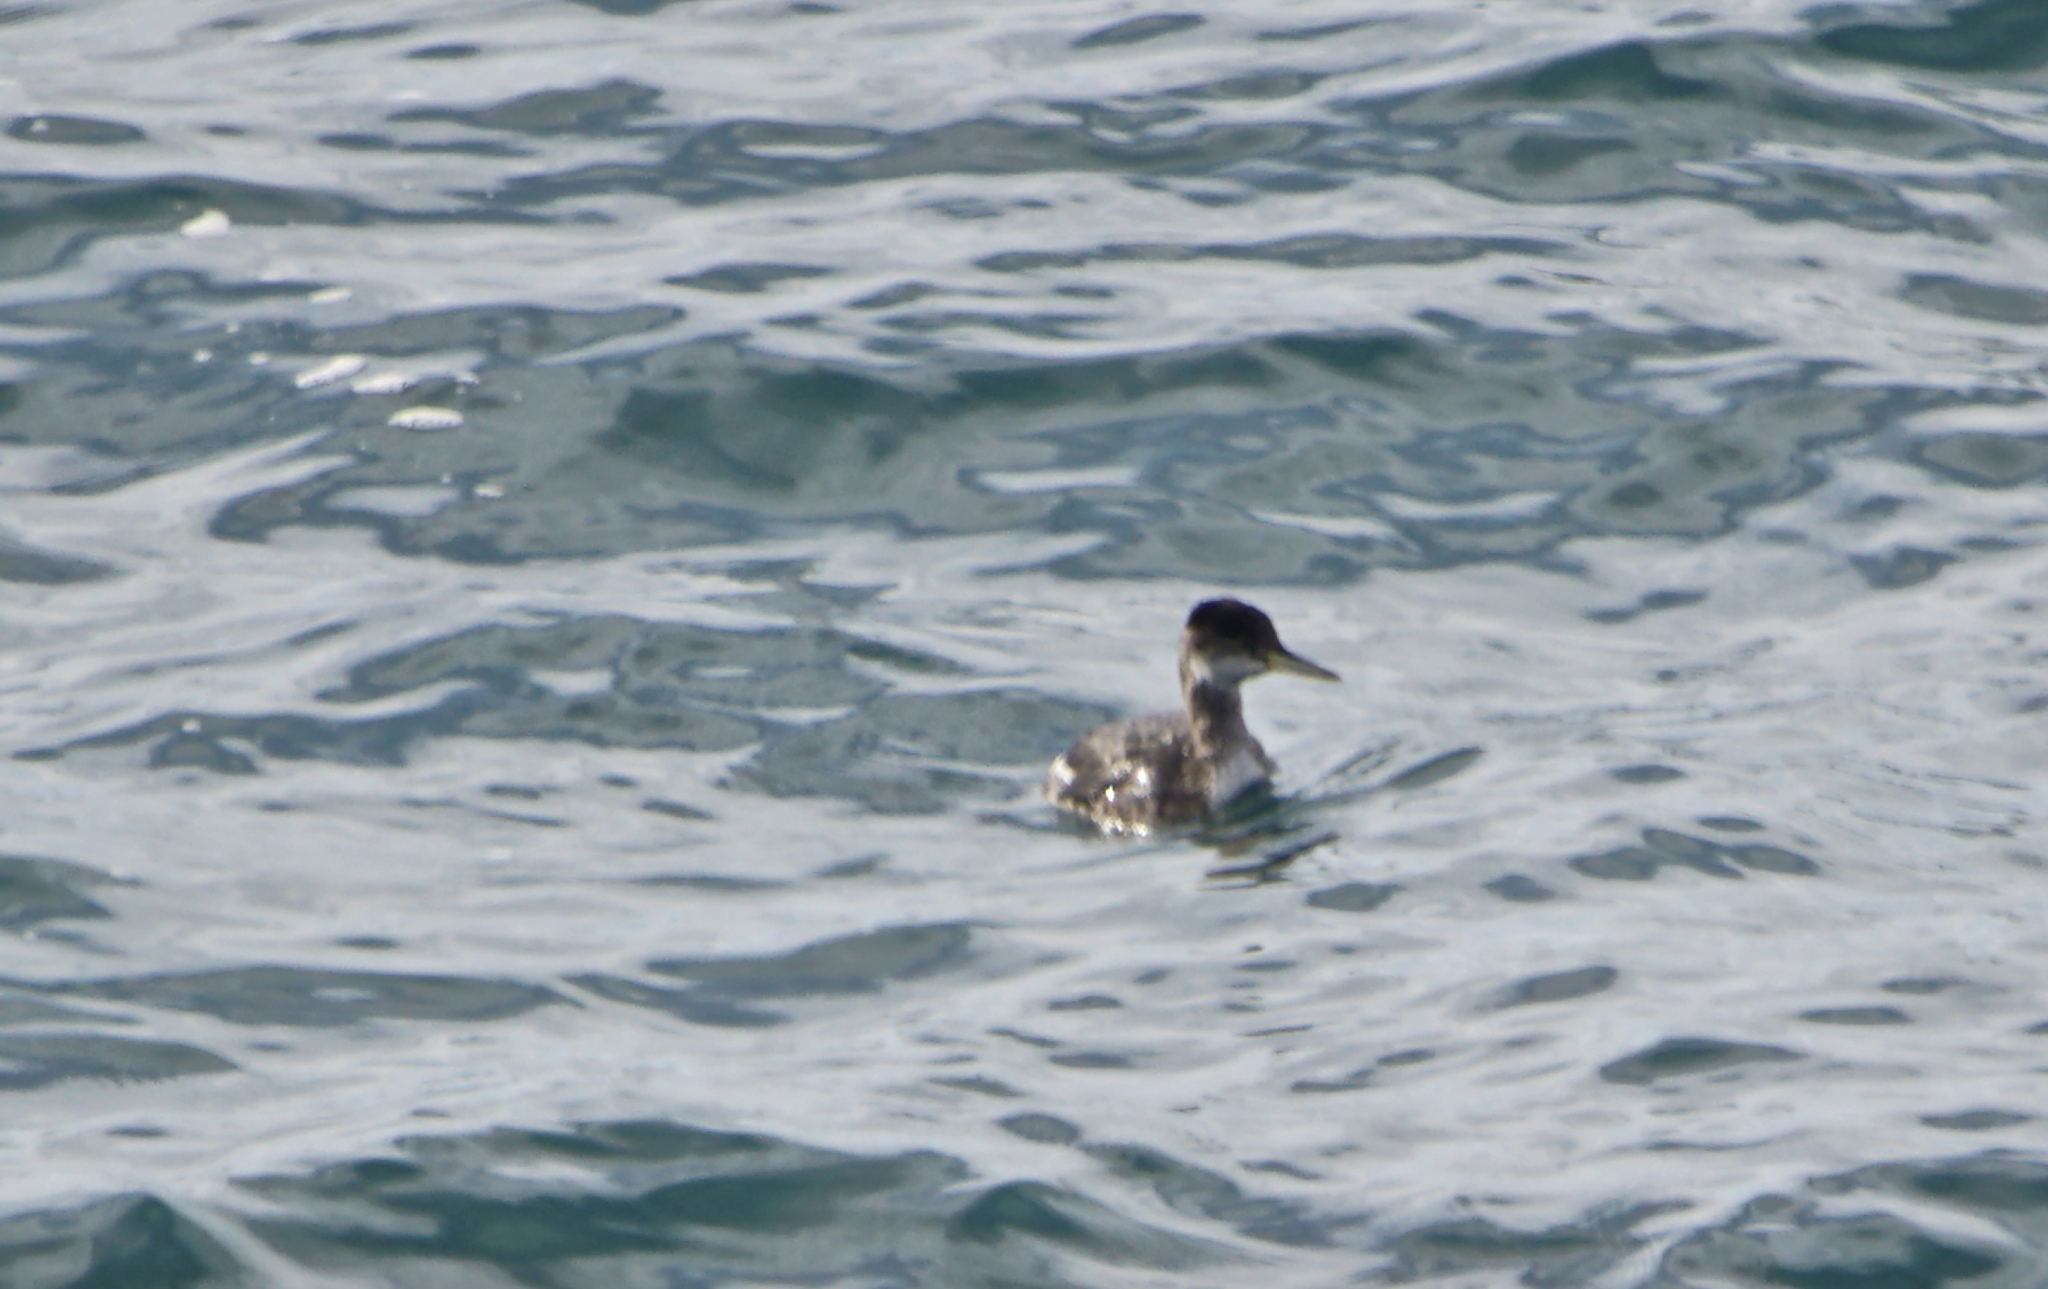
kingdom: Animalia
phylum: Chordata
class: Aves
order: Podicipediformes
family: Podicipedidae
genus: Podiceps
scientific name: Podiceps grisegena
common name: Red-necked grebe
